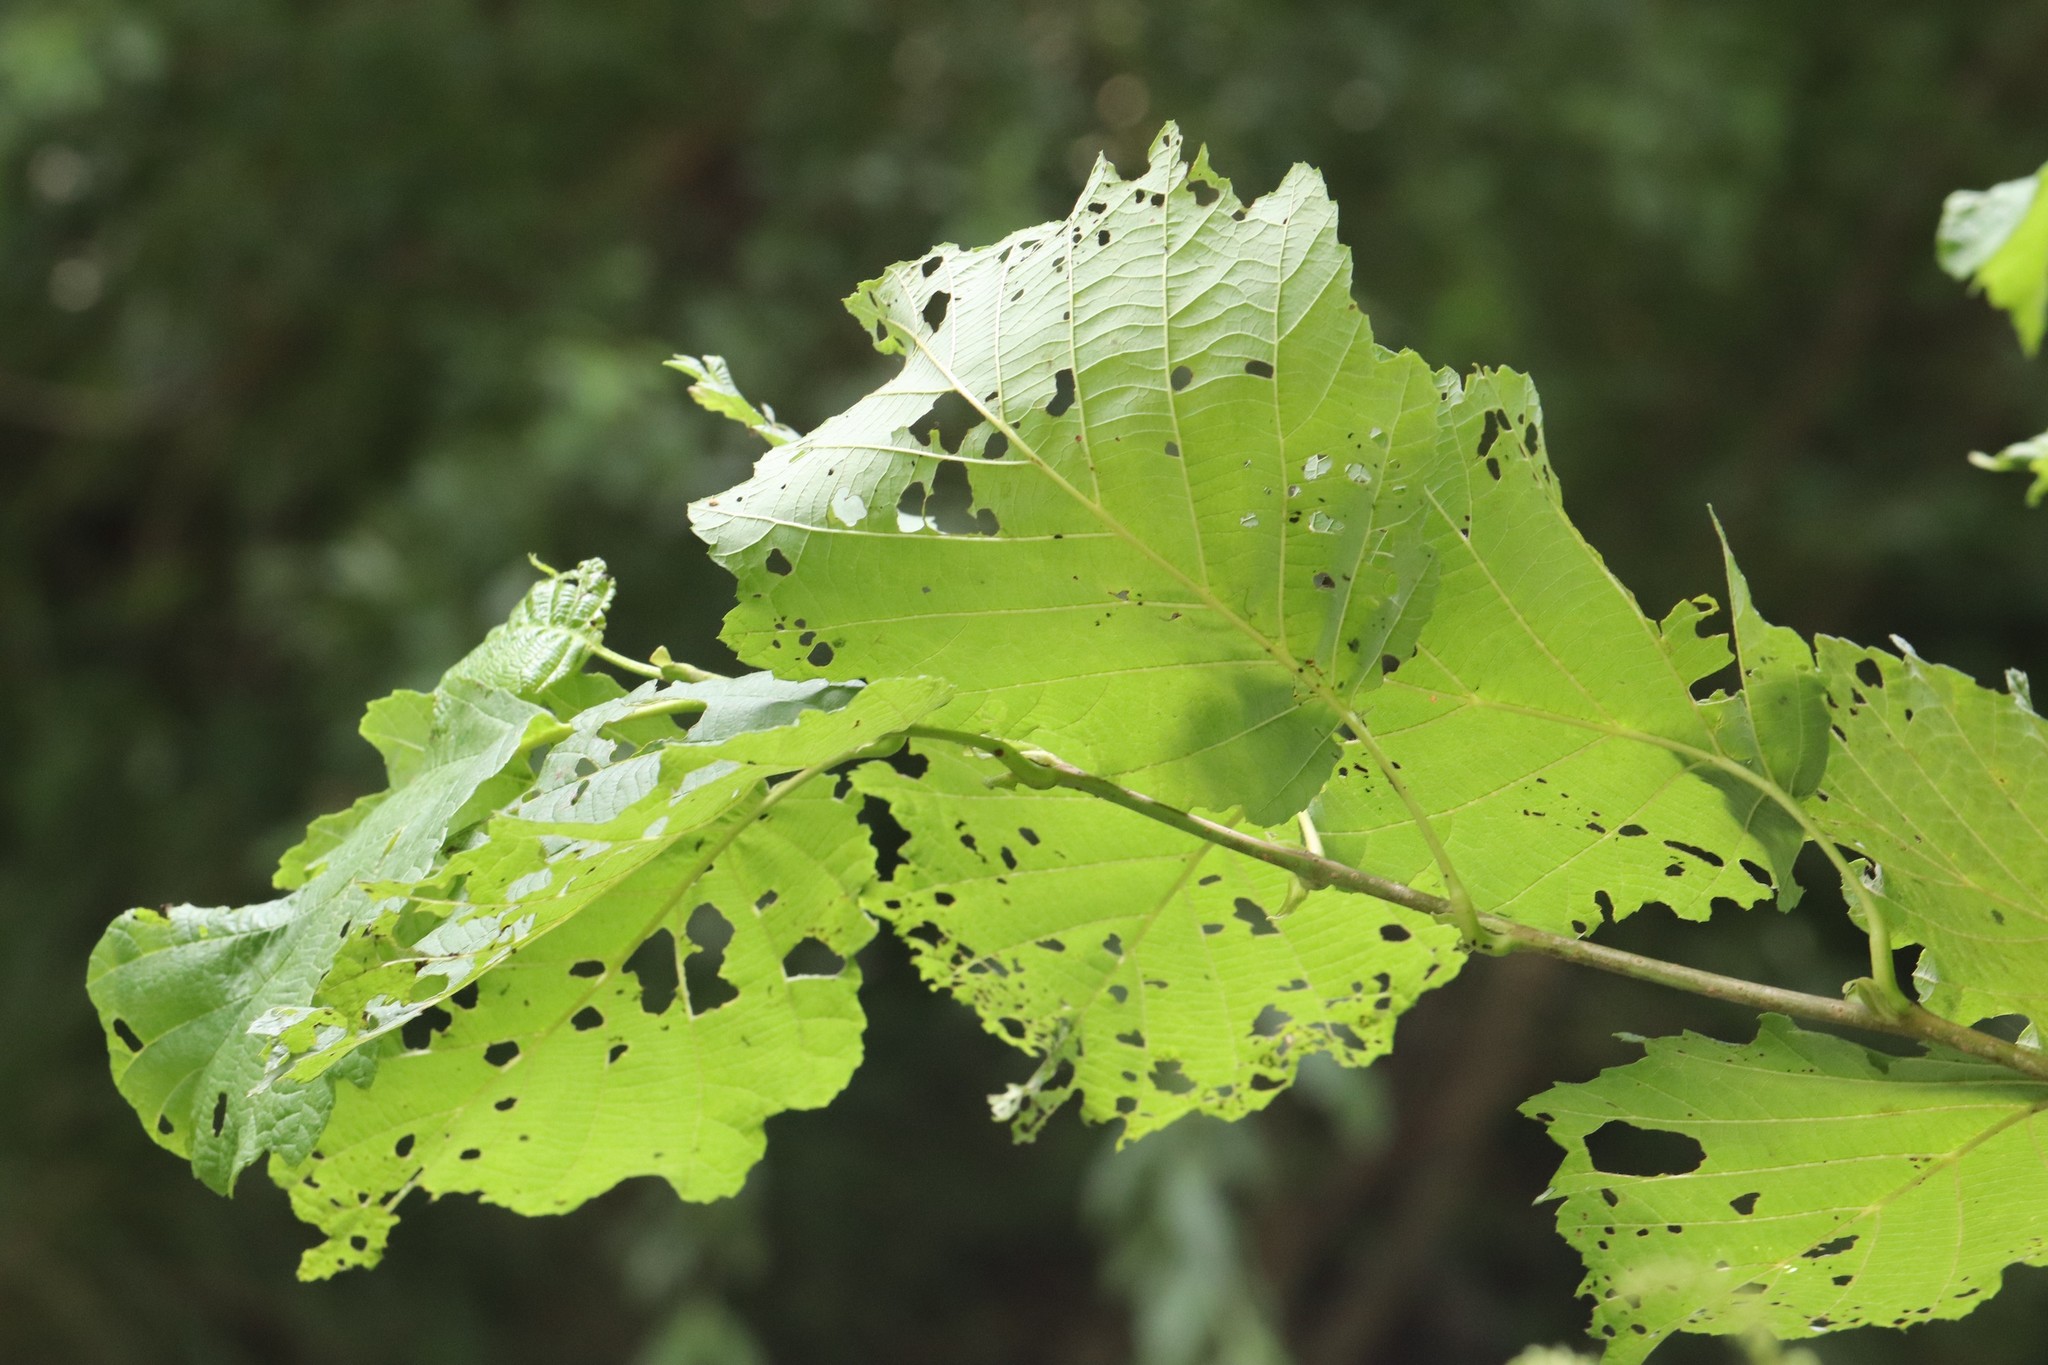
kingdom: Plantae
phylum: Tracheophyta
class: Magnoliopsida
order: Fagales
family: Betulaceae
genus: Alnus
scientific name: Alnus hirsuta
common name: Manchurian alder
